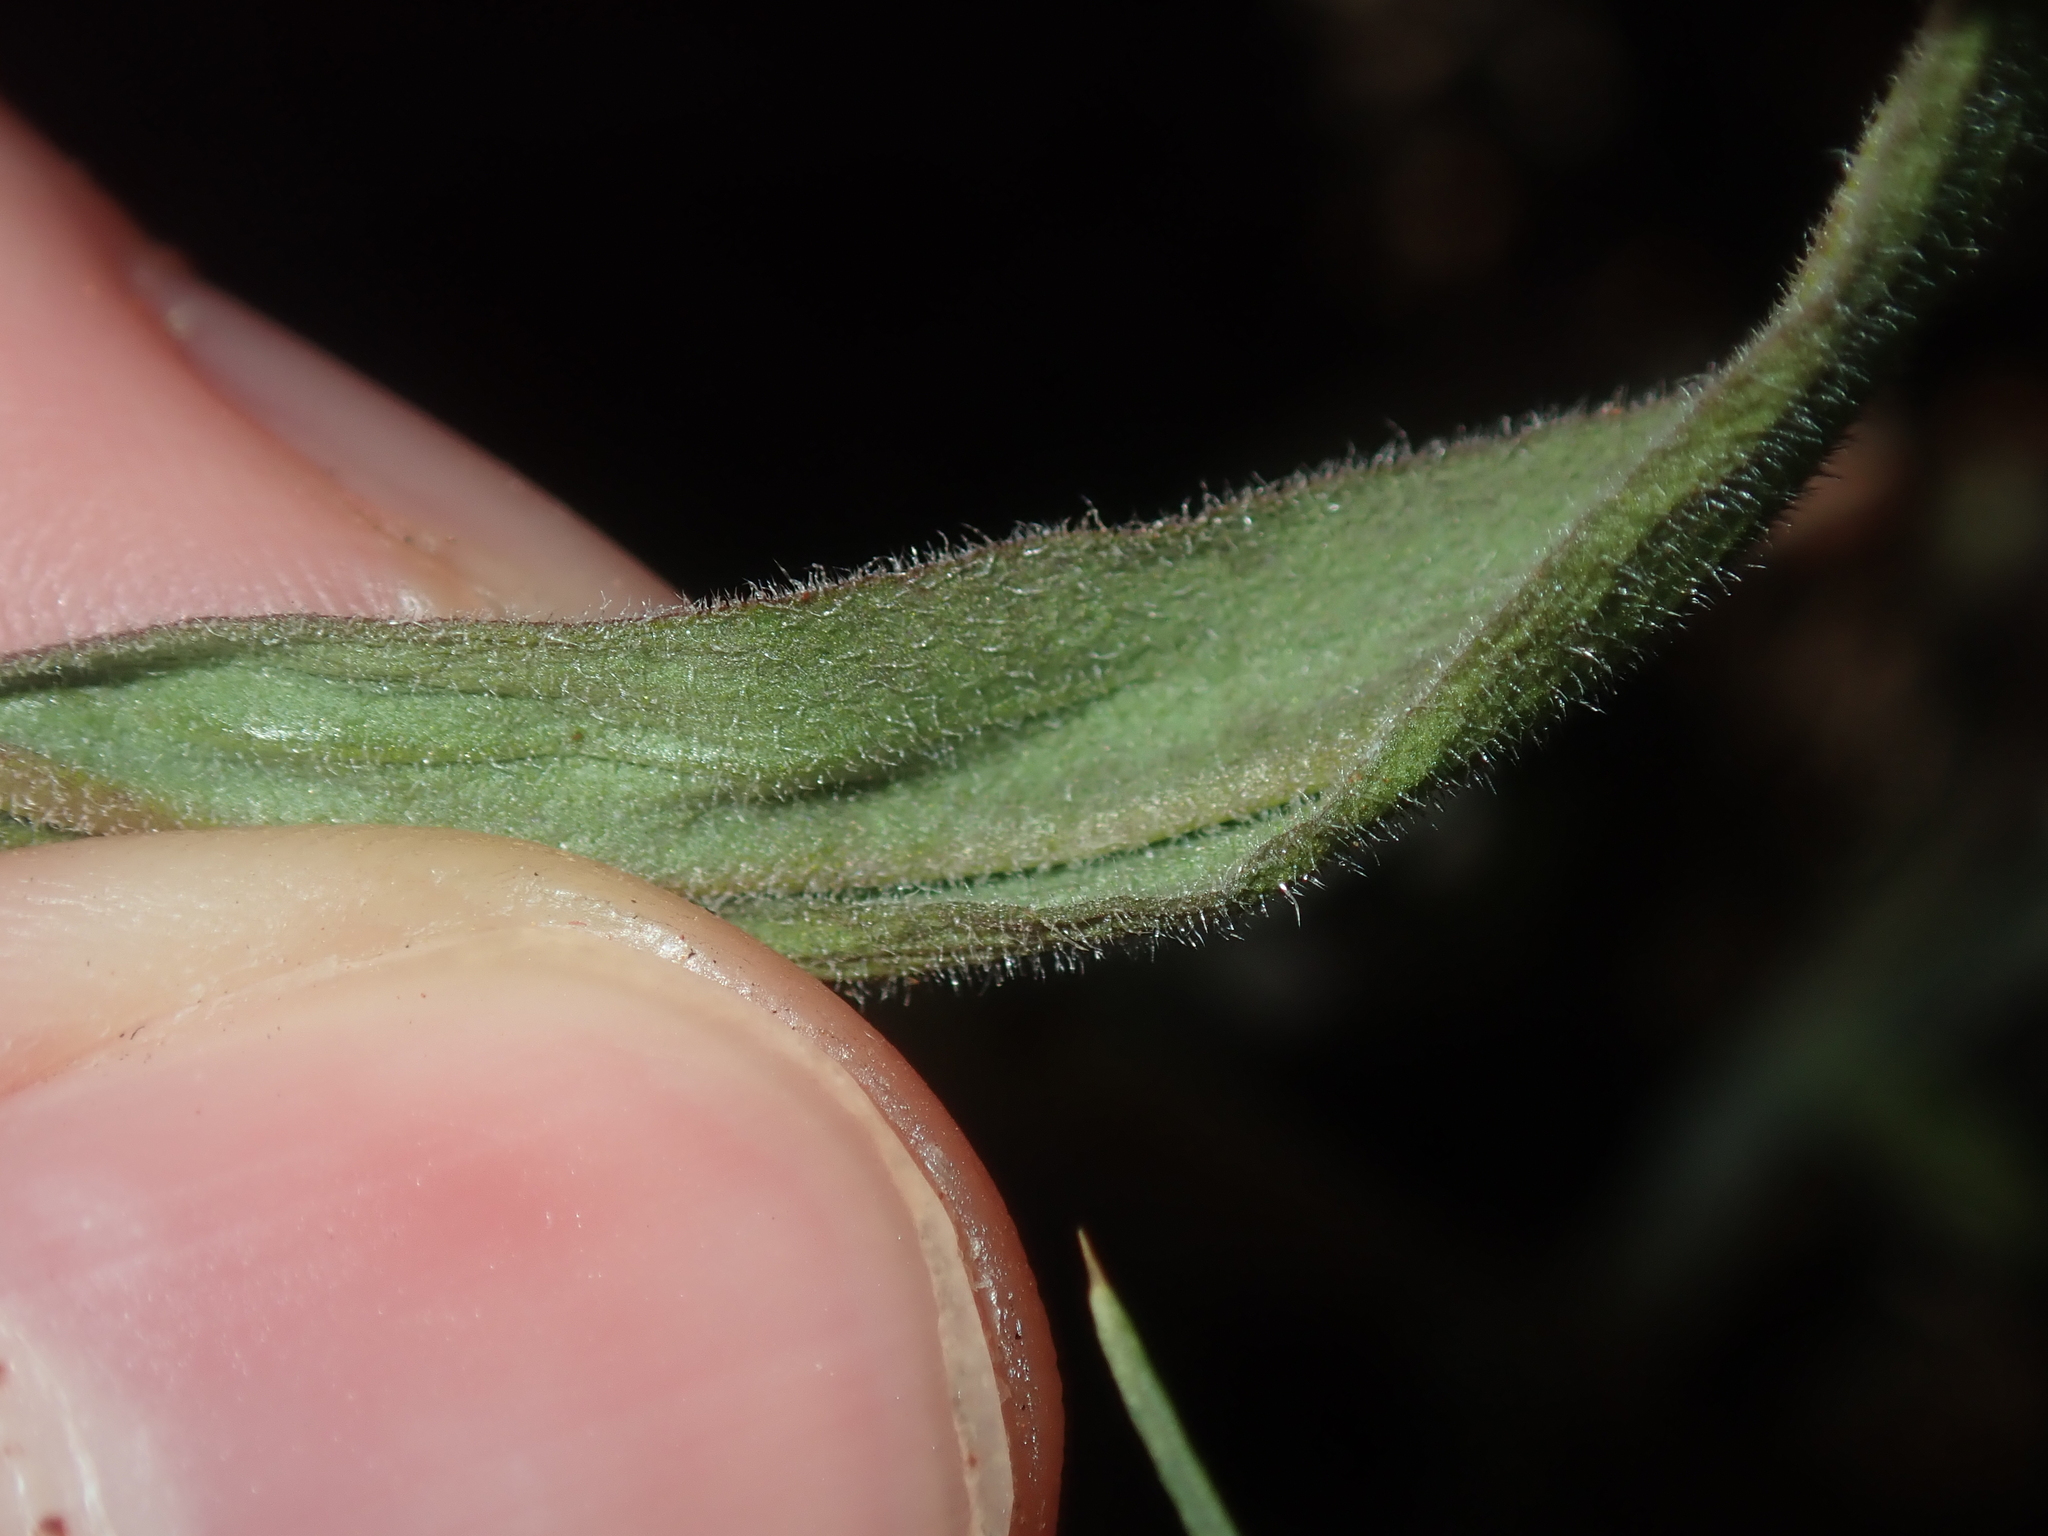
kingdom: Plantae
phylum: Tracheophyta
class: Magnoliopsida
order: Asterales
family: Asteraceae
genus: Schoenia
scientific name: Schoenia cassiniana
